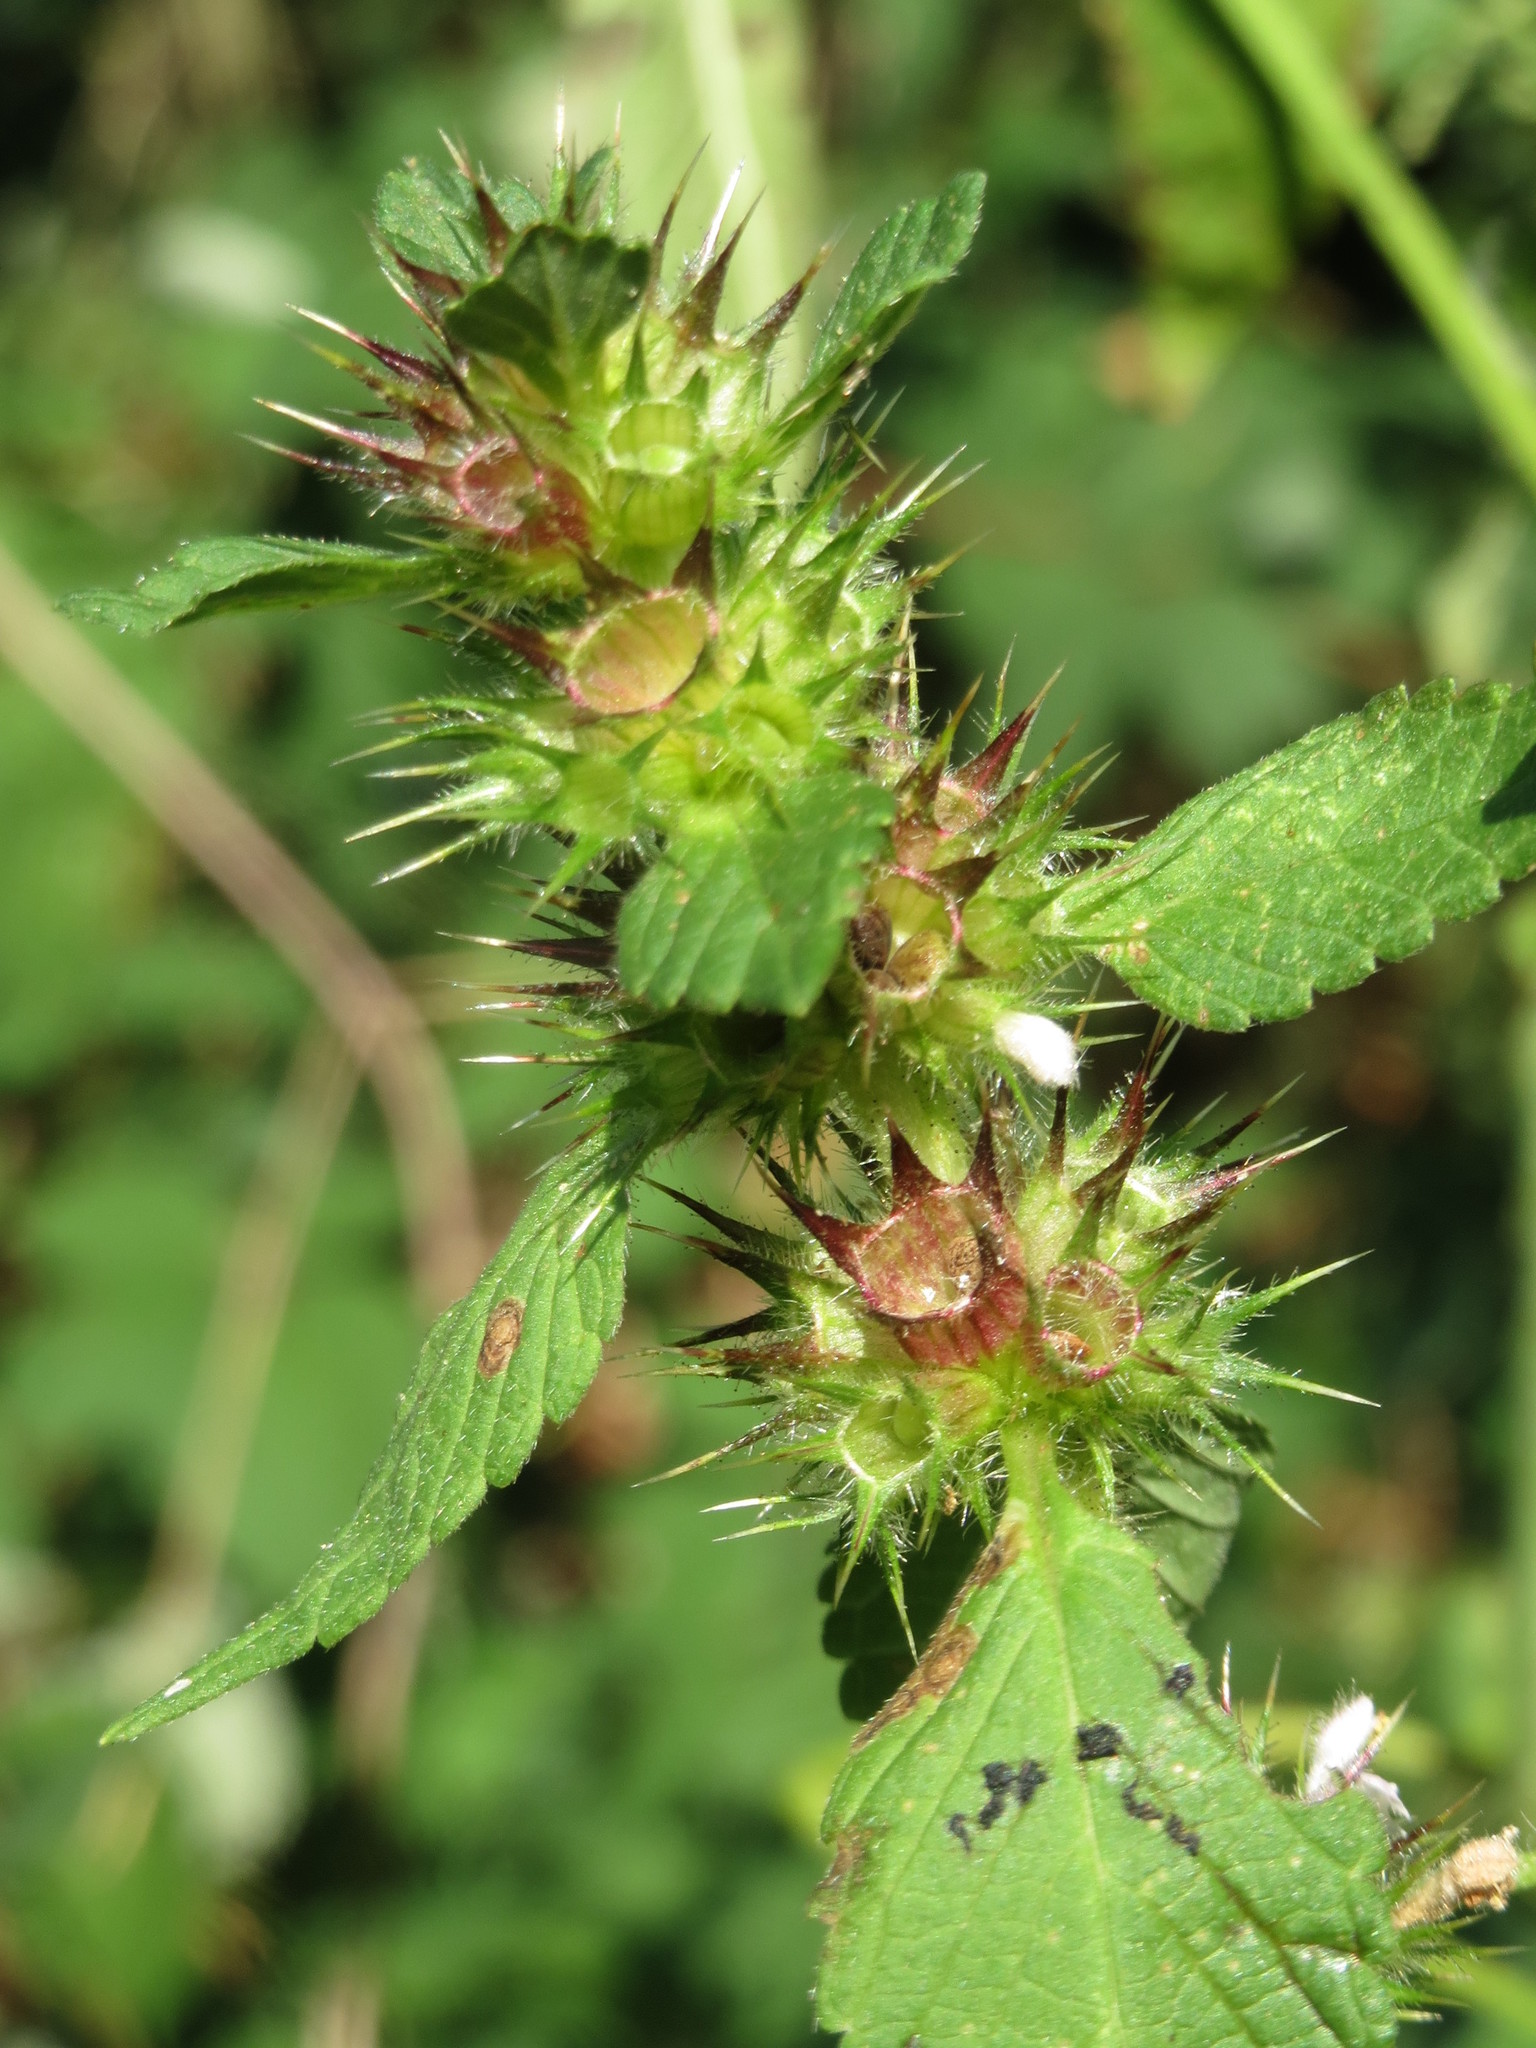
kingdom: Plantae
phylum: Tracheophyta
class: Magnoliopsida
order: Lamiales
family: Lamiaceae
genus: Galeopsis
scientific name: Galeopsis tetrahit
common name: Common hemp-nettle
